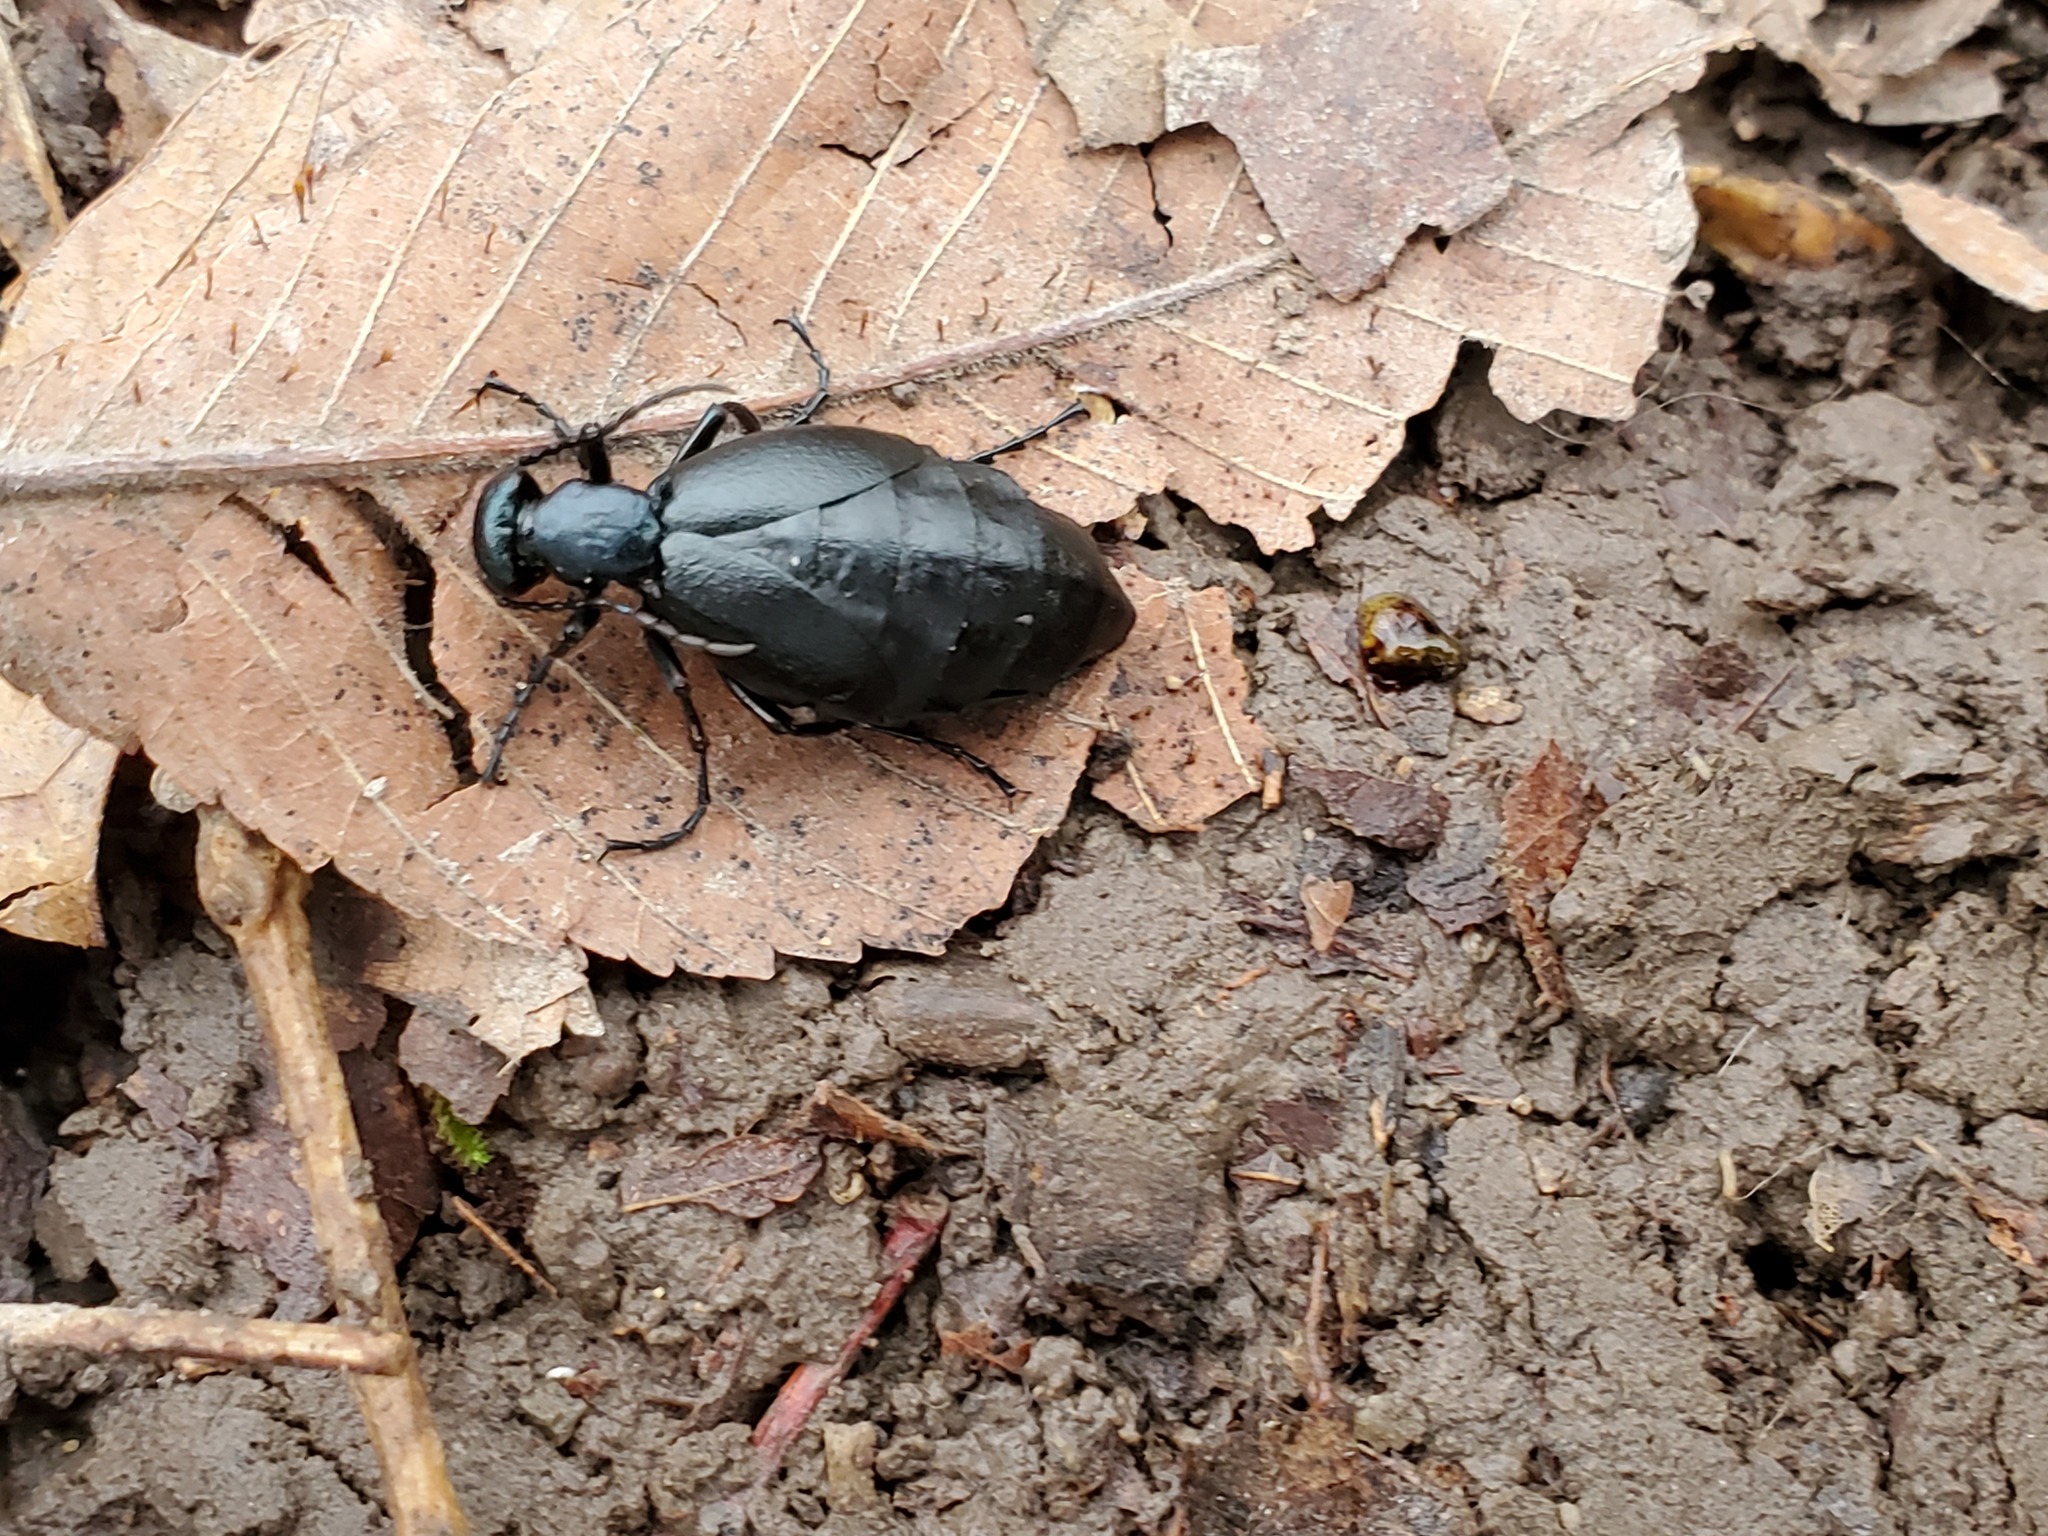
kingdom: Animalia
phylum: Arthropoda
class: Insecta
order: Coleoptera
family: Meloidae
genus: Meloe
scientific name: Meloe americanus
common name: Buttercup oil beetle
